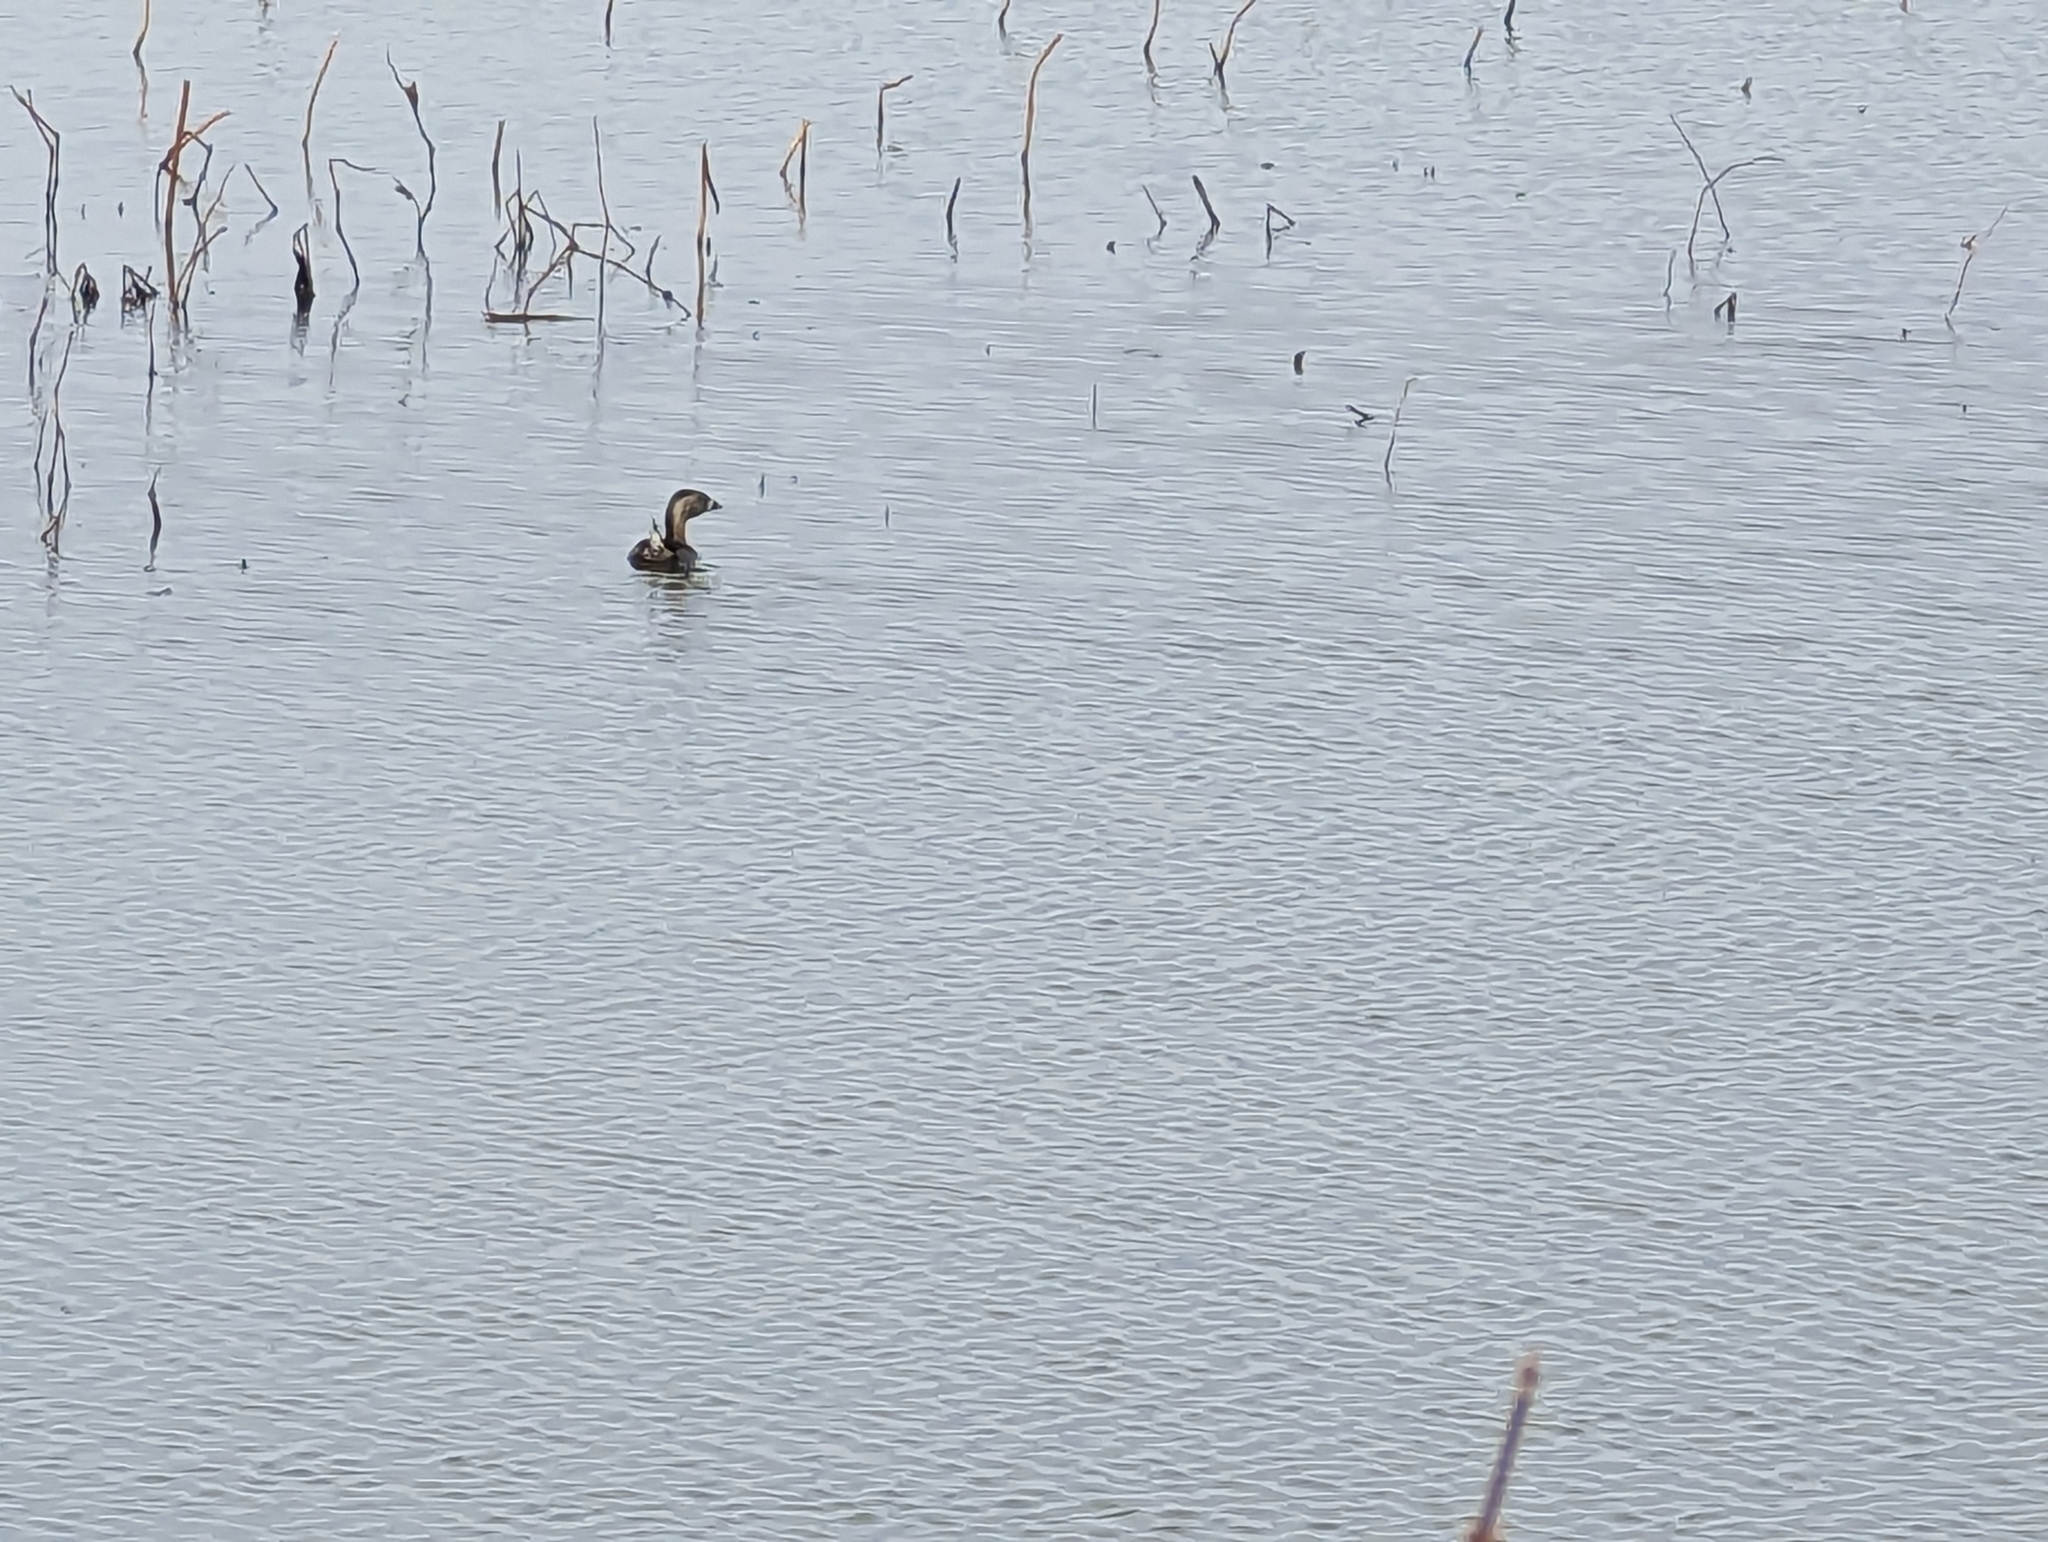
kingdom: Animalia
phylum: Chordata
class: Aves
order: Podicipediformes
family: Podicipedidae
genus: Podilymbus
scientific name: Podilymbus podiceps
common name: Pied-billed grebe
